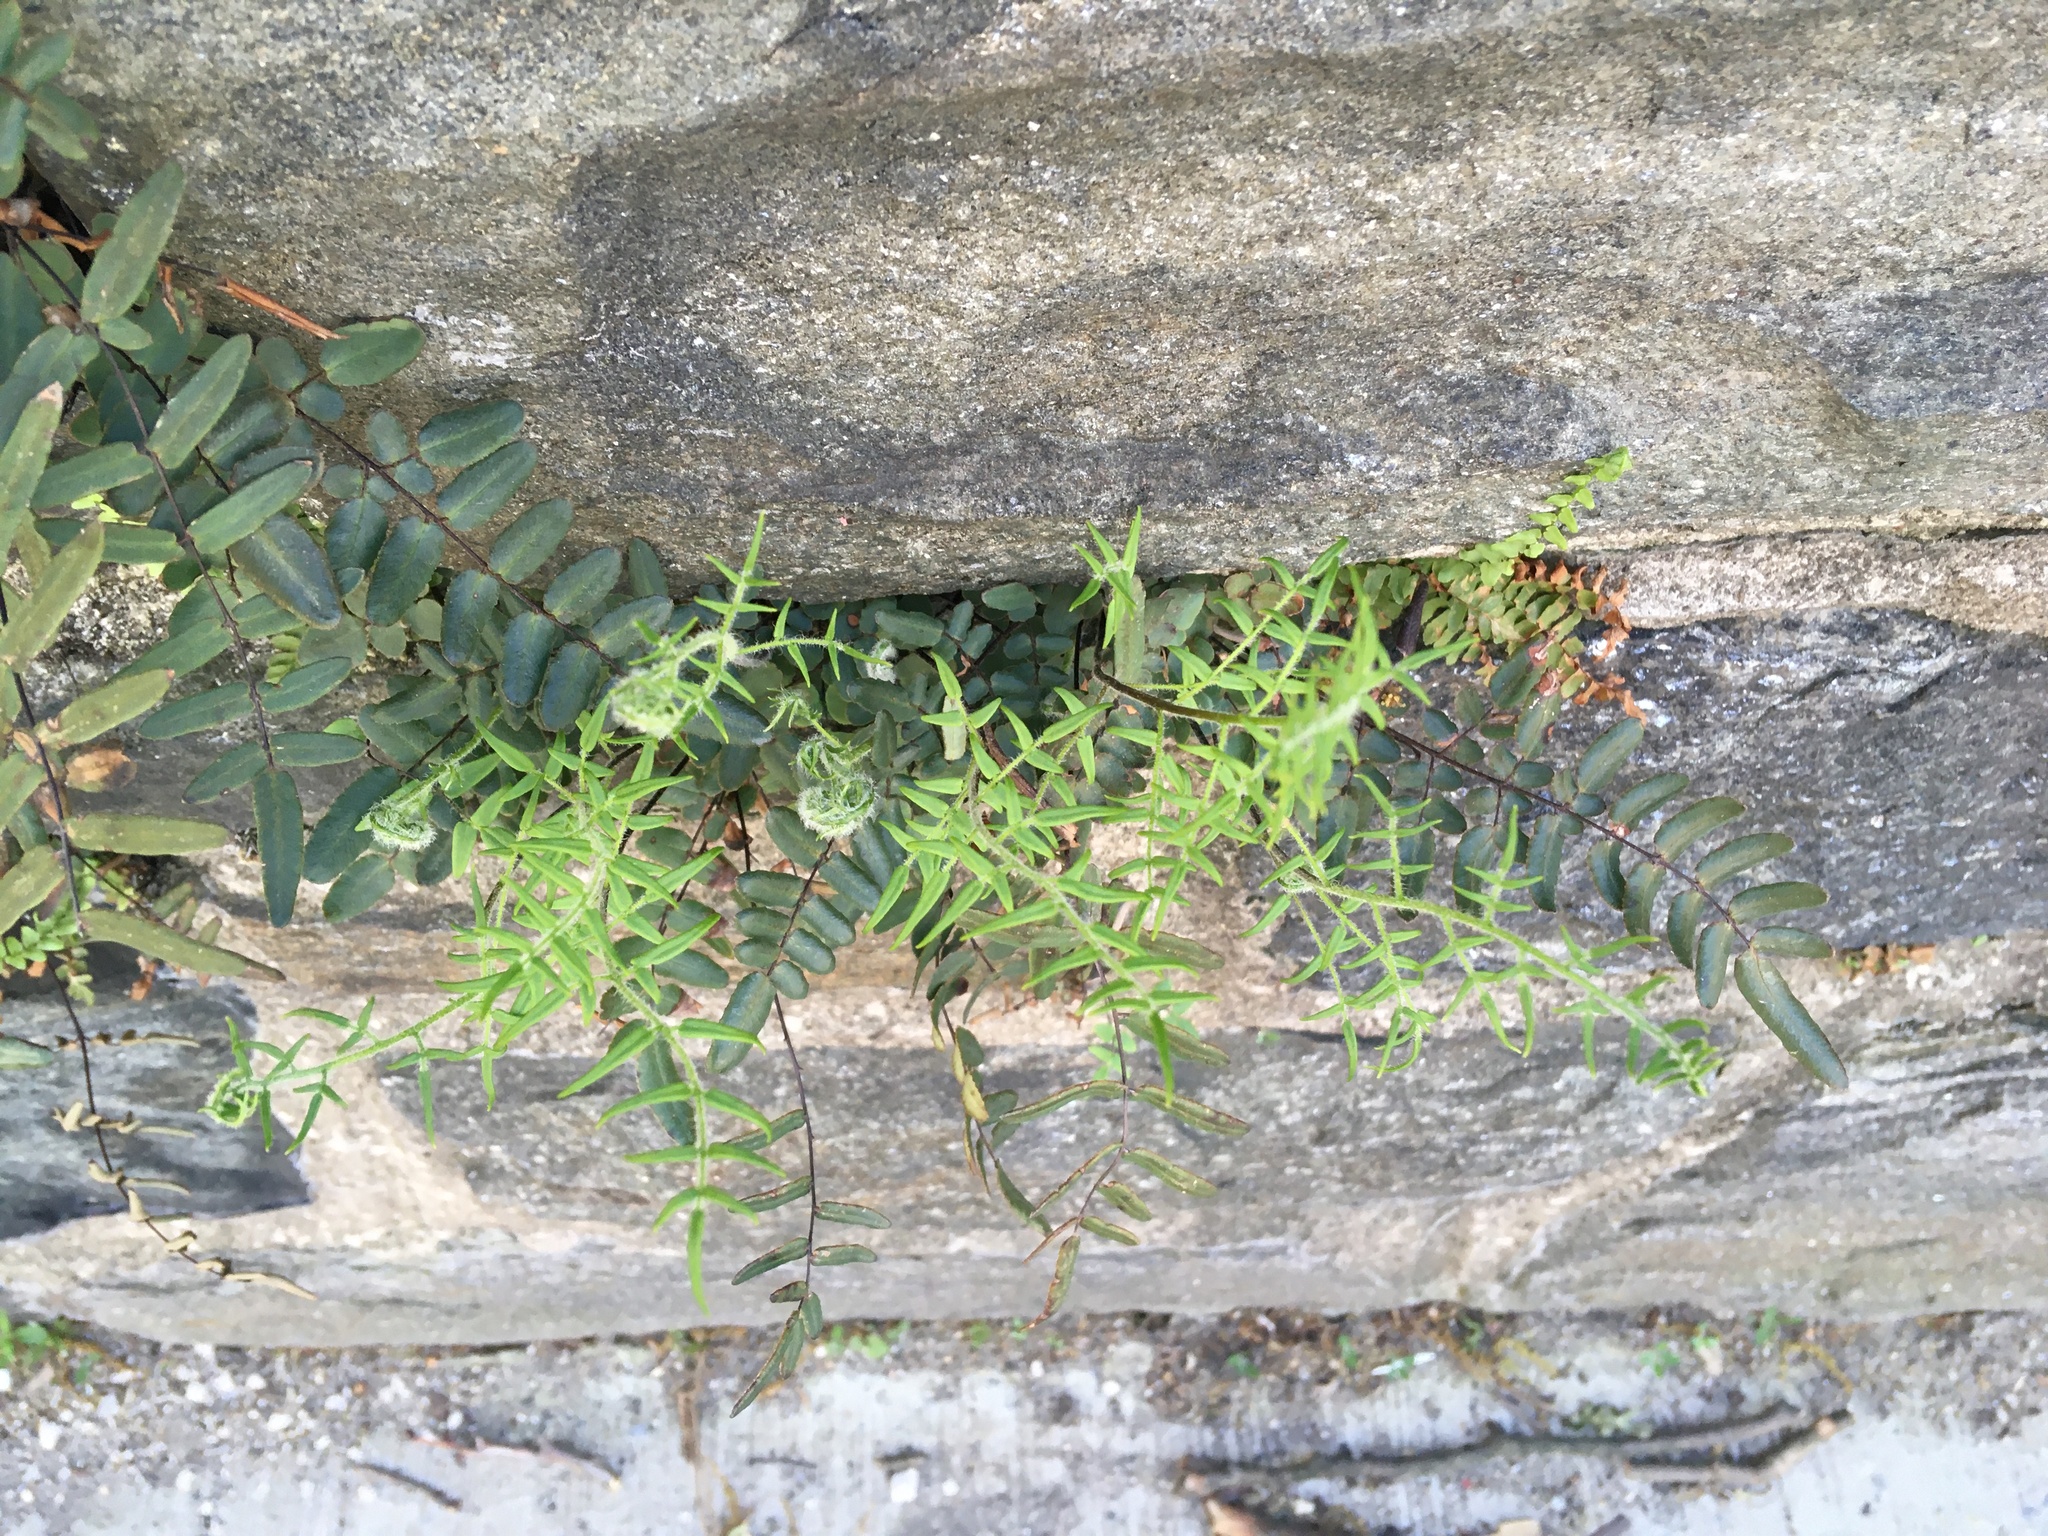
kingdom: Plantae
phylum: Tracheophyta
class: Polypodiopsida
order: Polypodiales
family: Pteridaceae
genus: Pellaea
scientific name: Pellaea atropurpurea
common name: Hairy cliffbrake
